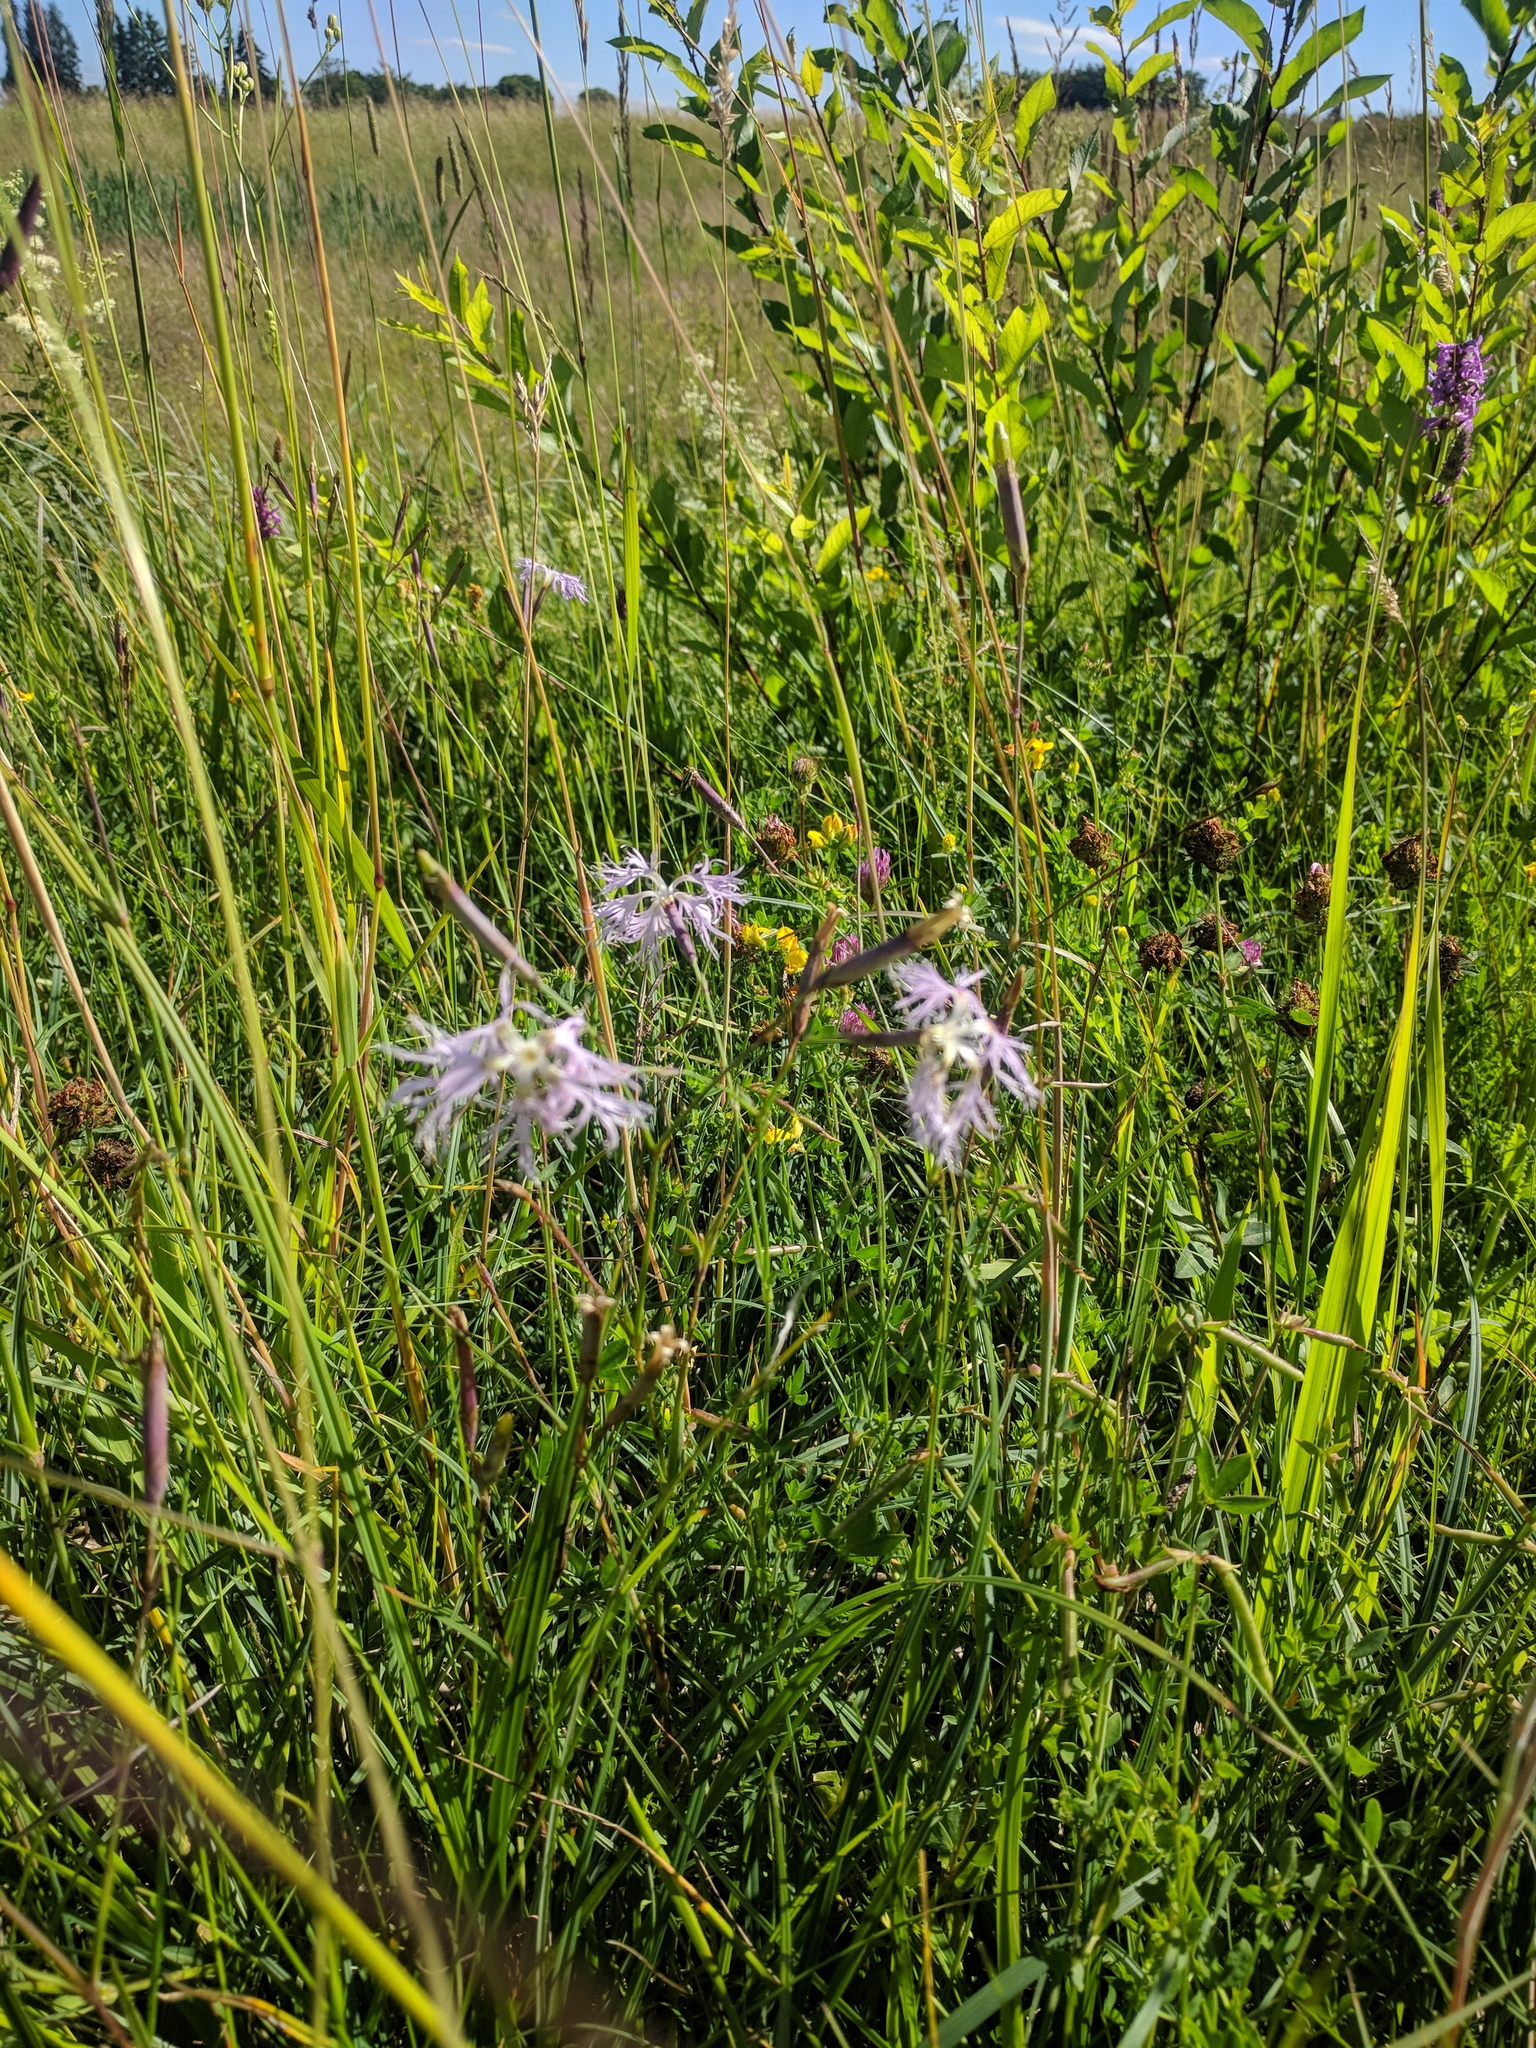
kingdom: Plantae
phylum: Tracheophyta
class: Magnoliopsida
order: Caryophyllales
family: Caryophyllaceae
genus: Dianthus
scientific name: Dianthus superbus
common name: Fringed pink
